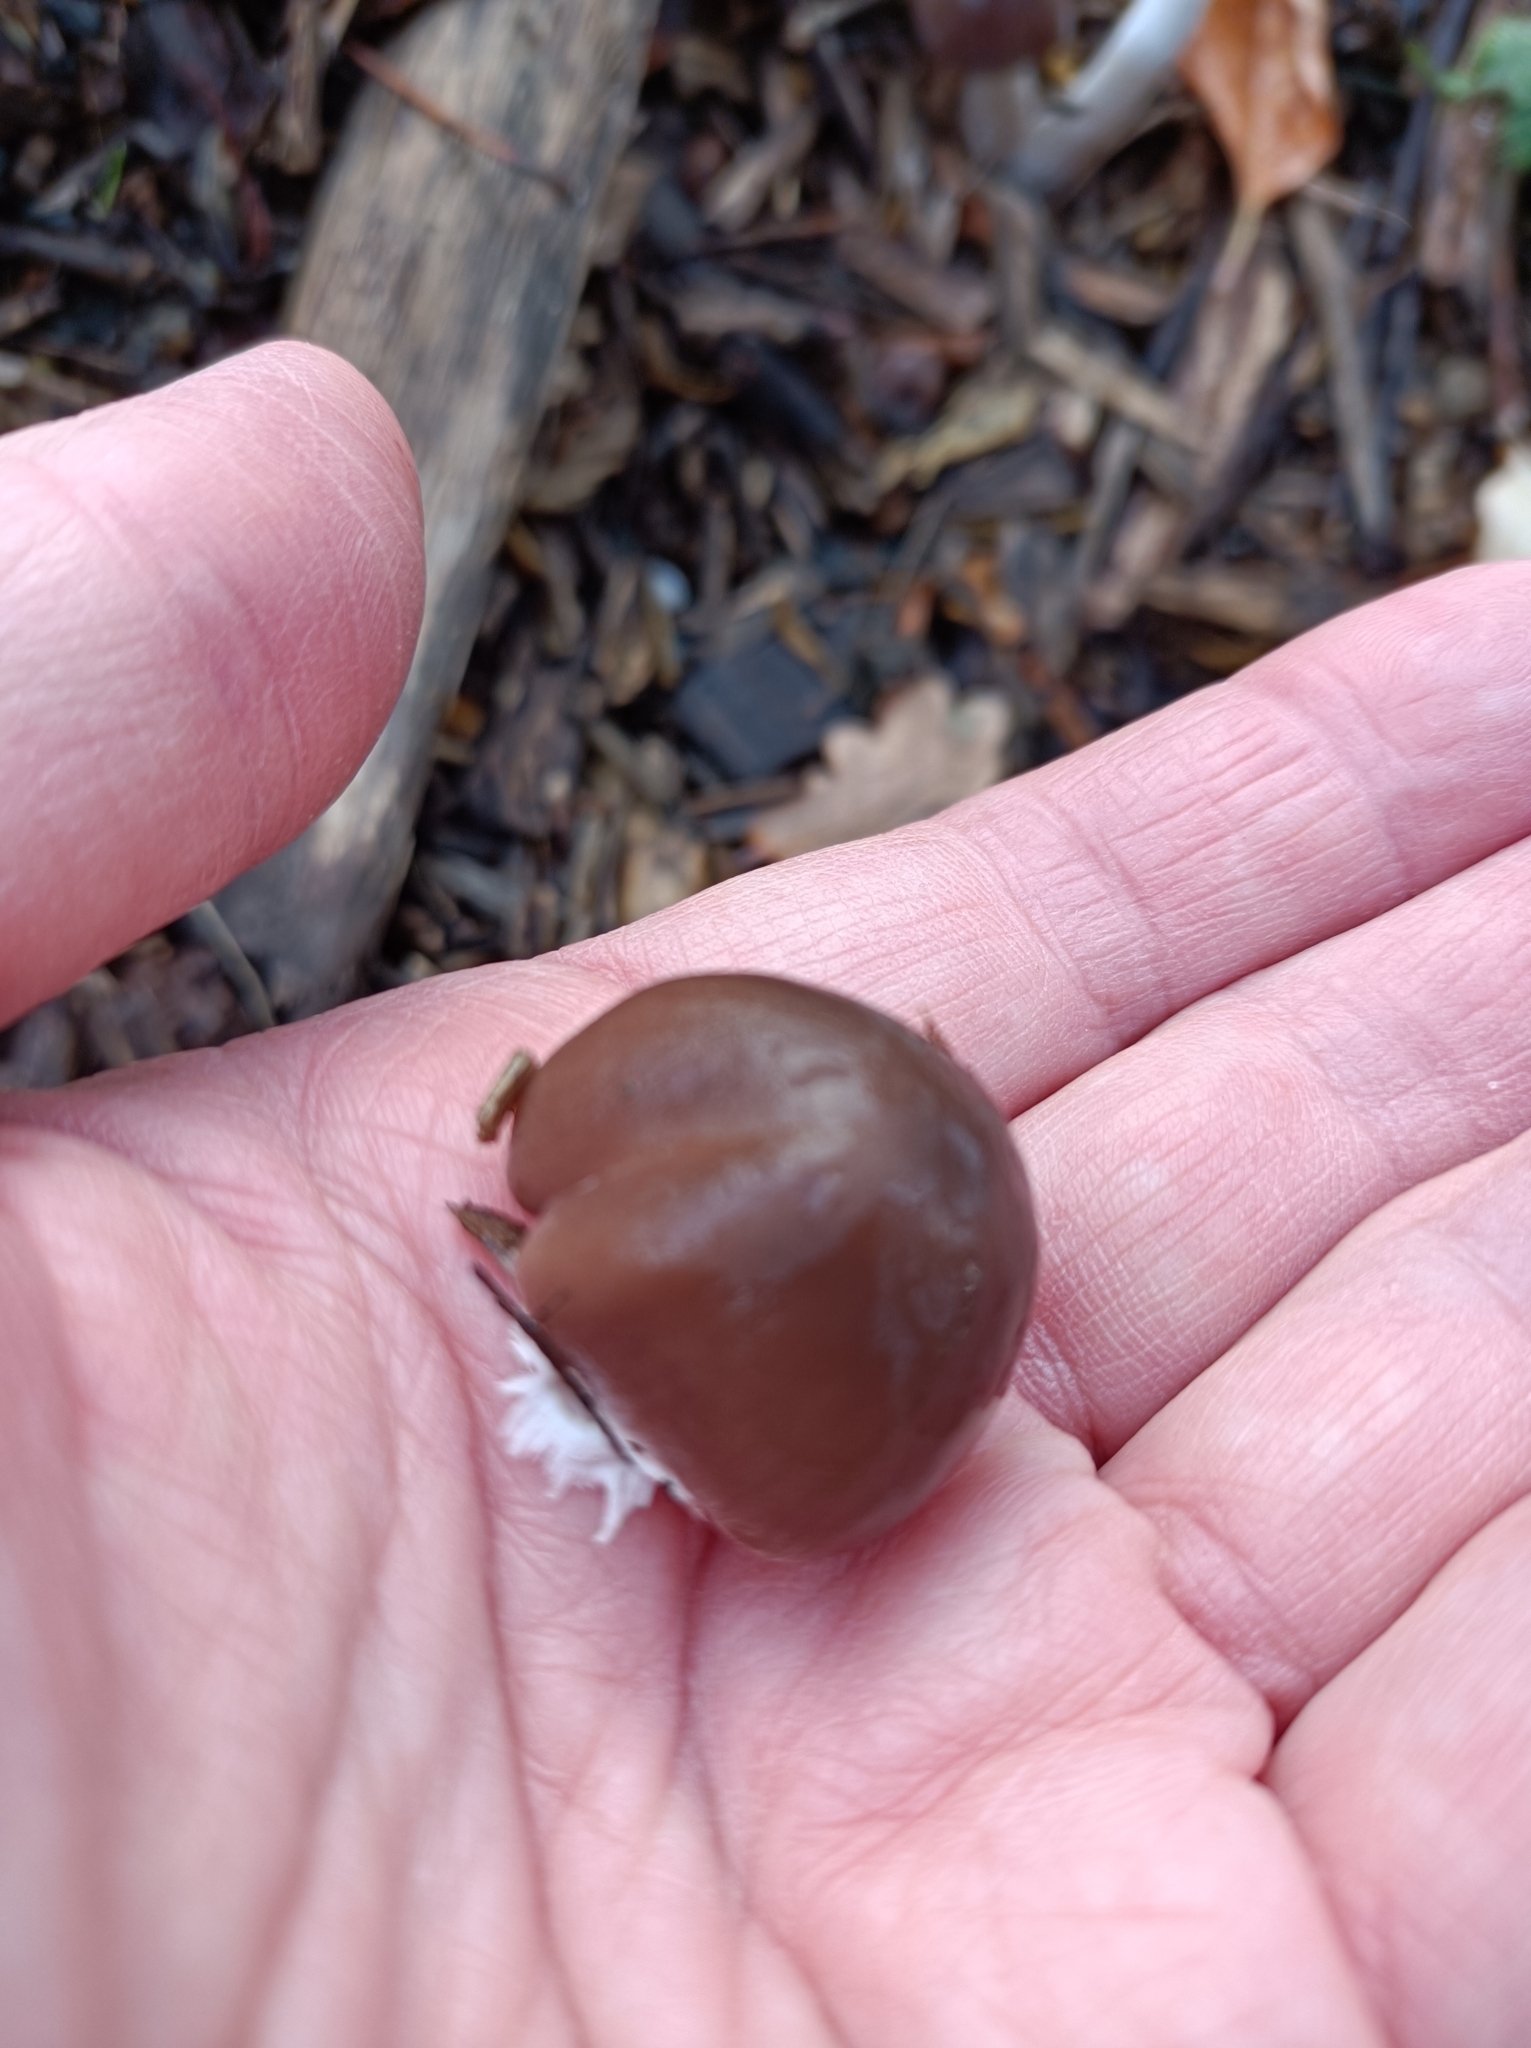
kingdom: Fungi
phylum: Basidiomycota
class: Agaricomycetes
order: Agaricales
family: Strophariaceae
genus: Stropharia
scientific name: Stropharia hornemannii
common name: Conifer roundhead
